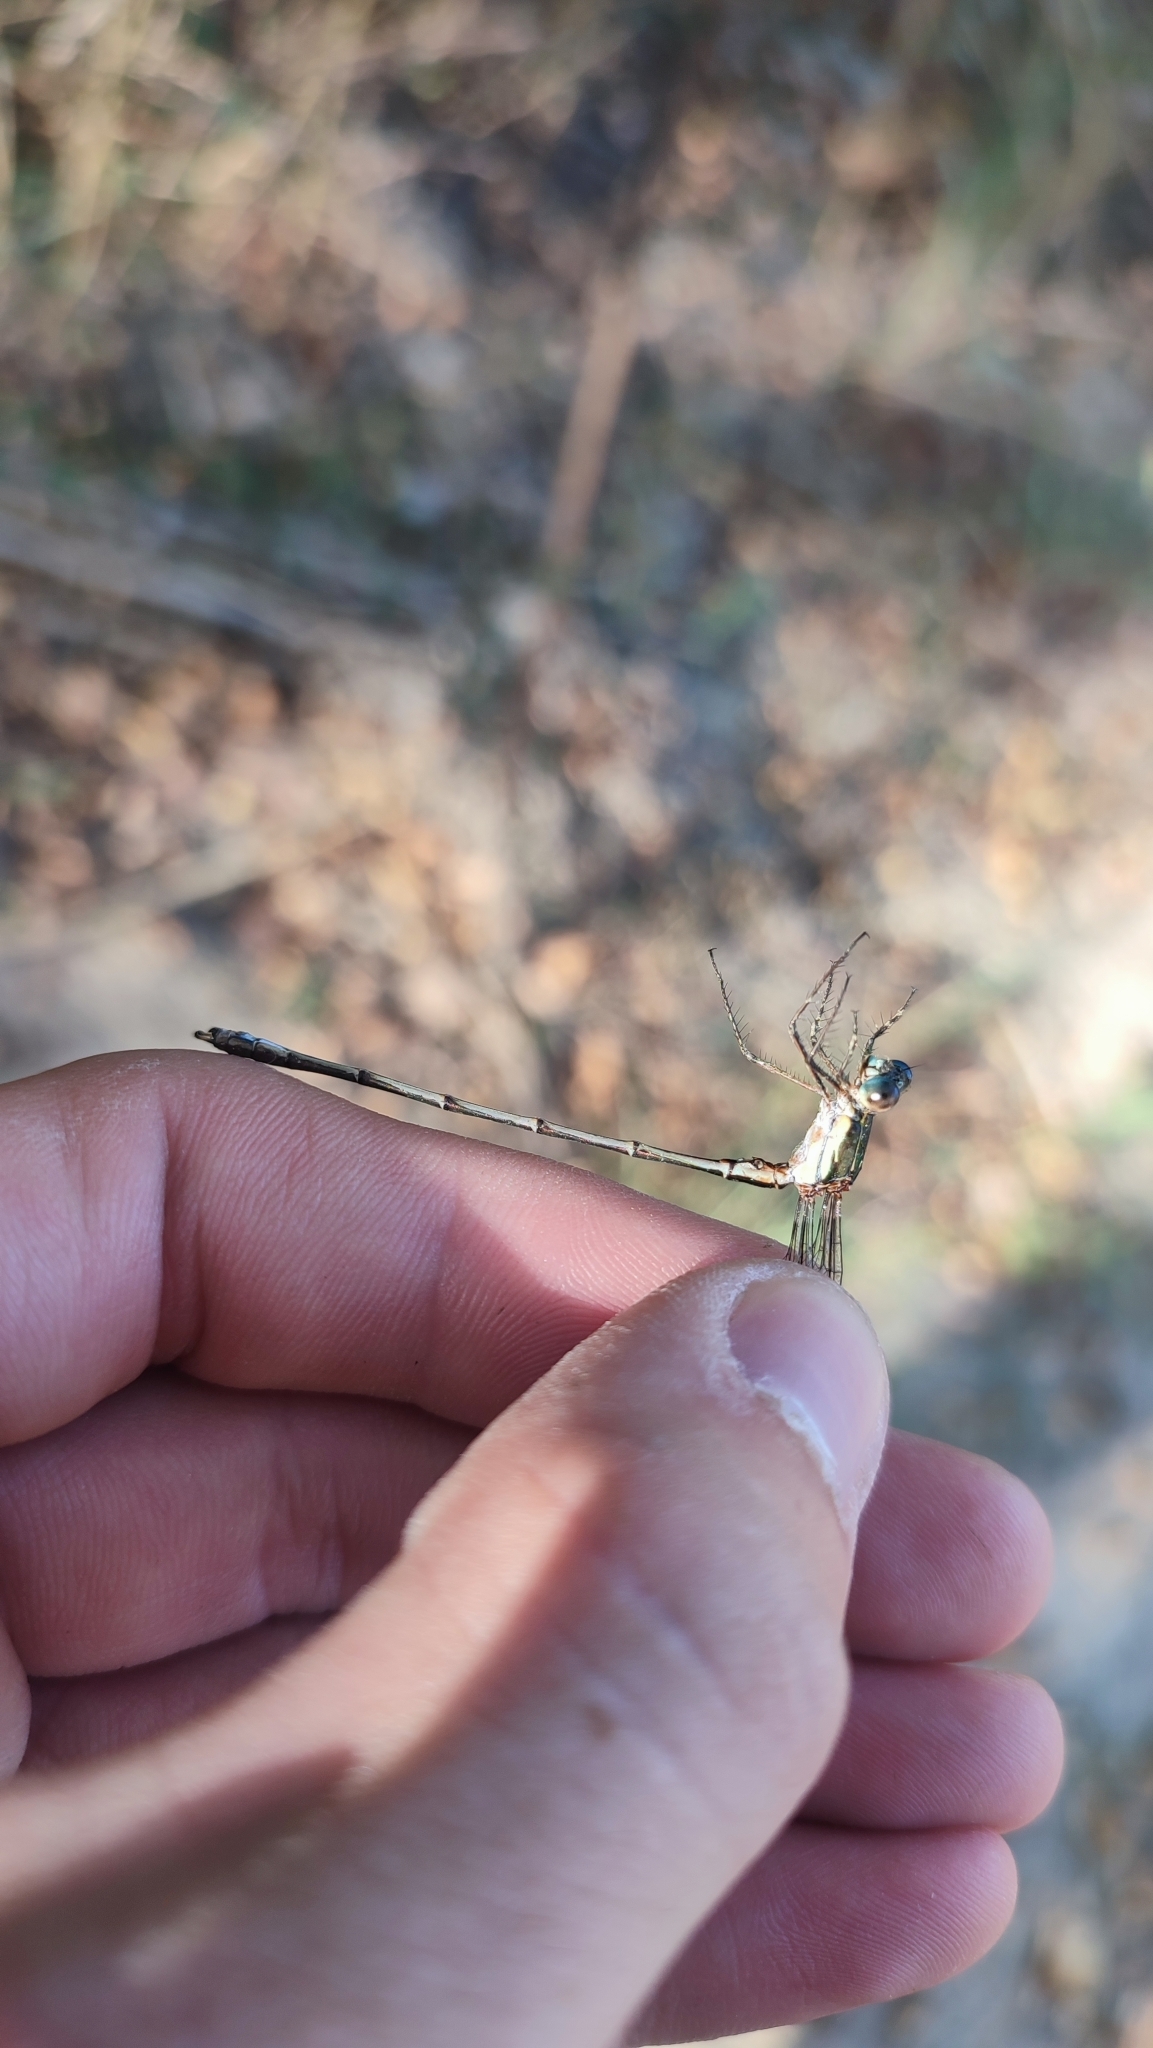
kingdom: Animalia
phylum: Arthropoda
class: Insecta
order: Odonata
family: Lestidae
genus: Chalcolestes
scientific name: Chalcolestes viridis
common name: Green emerald damselfly
